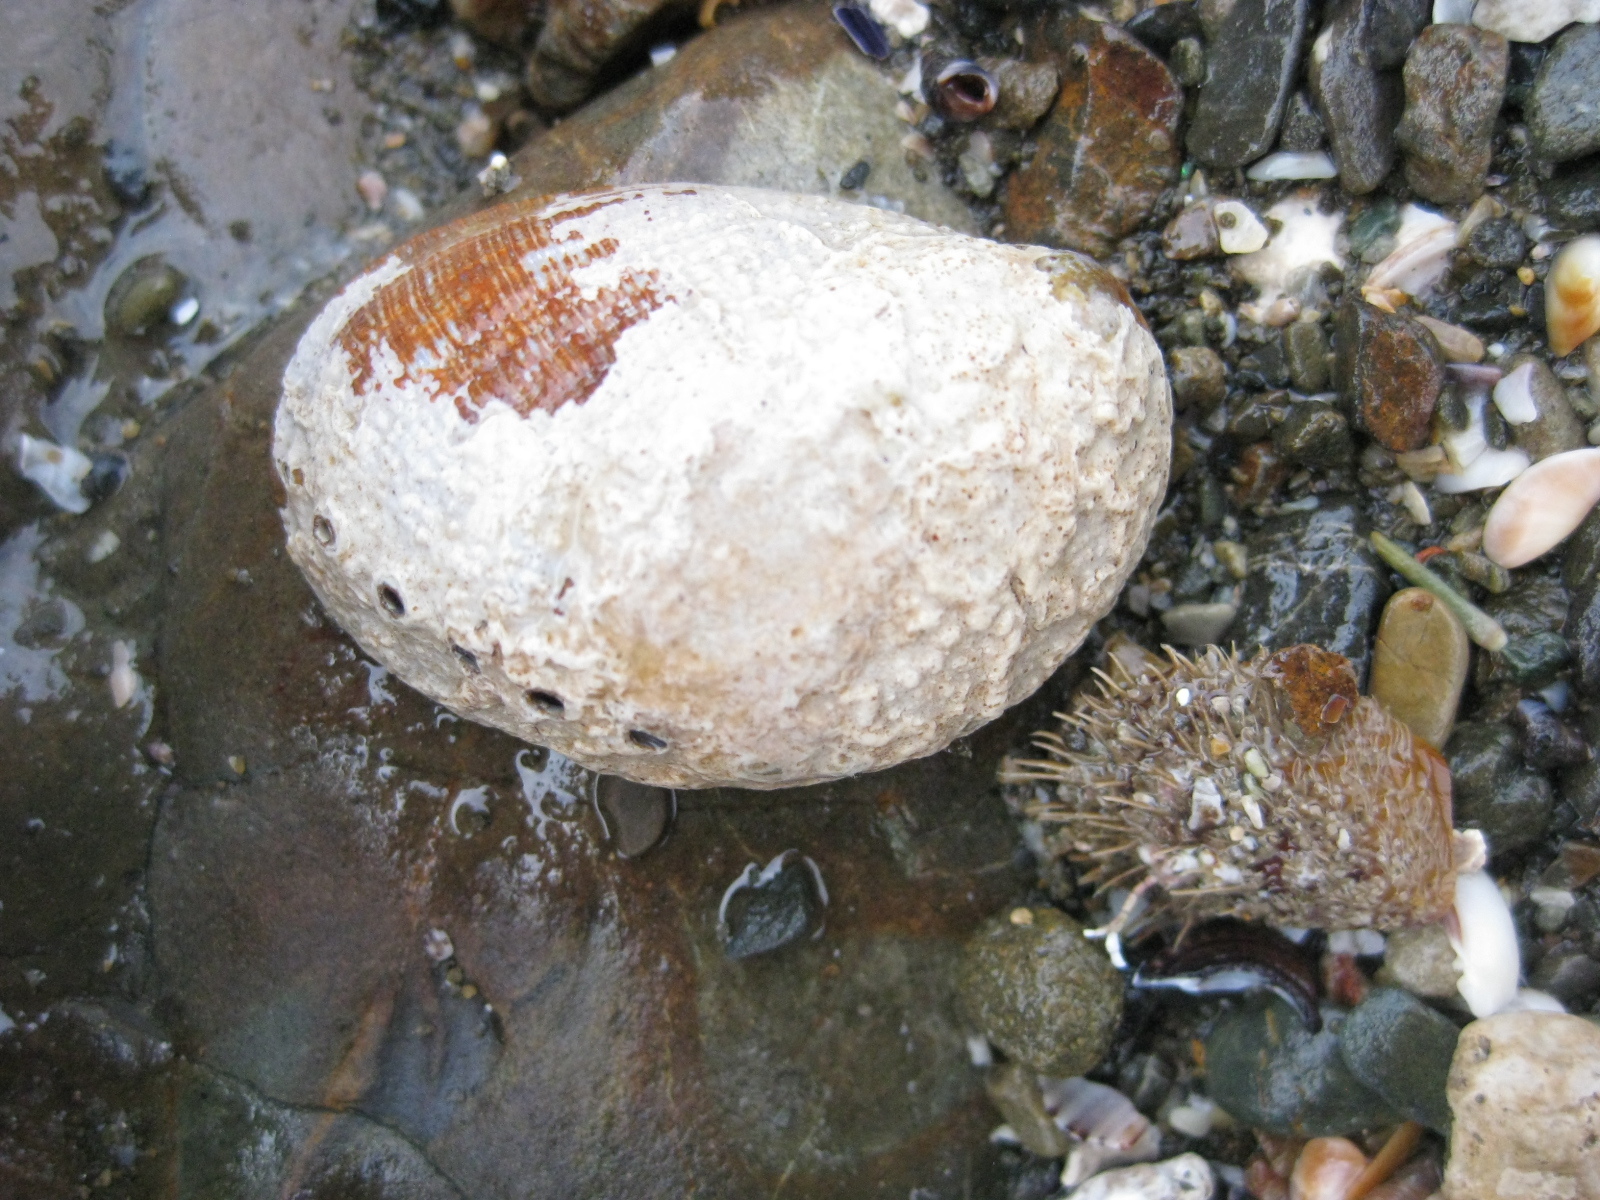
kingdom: Animalia
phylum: Mollusca
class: Gastropoda
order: Lepetellida
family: Haliotidae
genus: Haliotis
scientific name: Haliotis virginea
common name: Whitefoot paua
